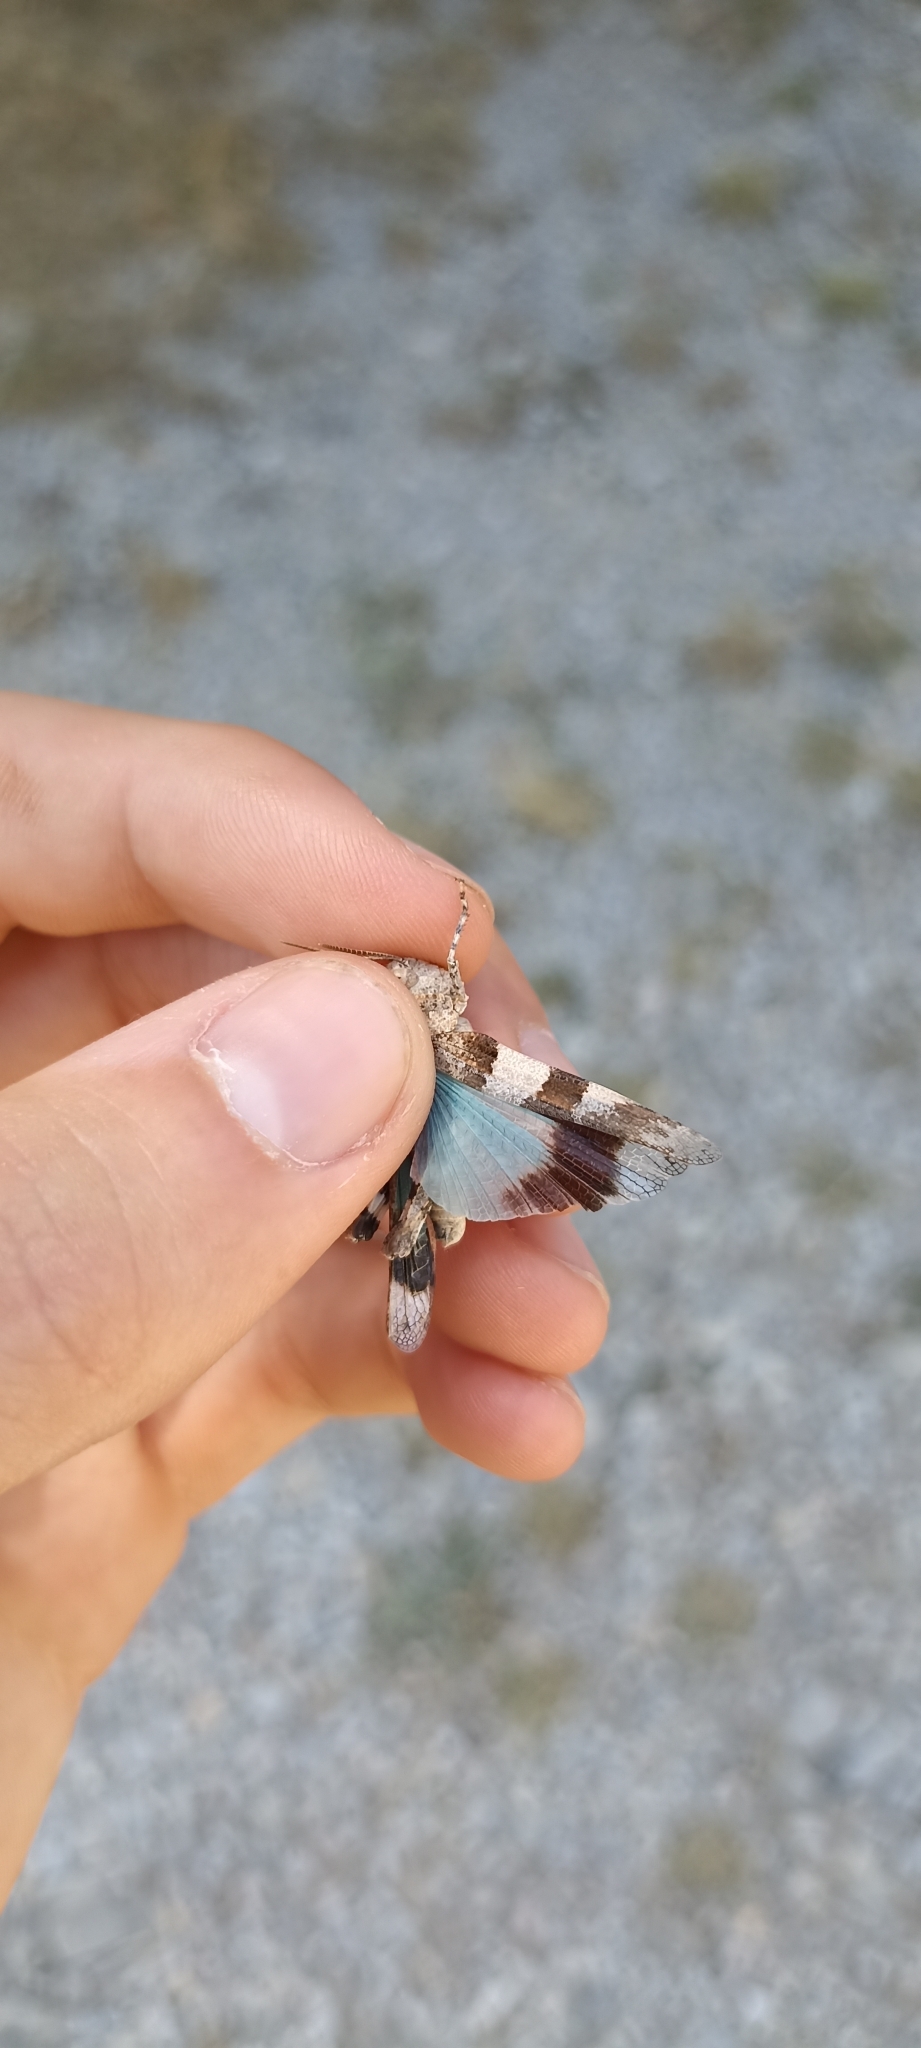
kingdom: Animalia
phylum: Arthropoda
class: Insecta
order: Orthoptera
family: Acrididae
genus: Oedipoda
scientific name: Oedipoda caerulescens
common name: Blue-winged grasshopper
